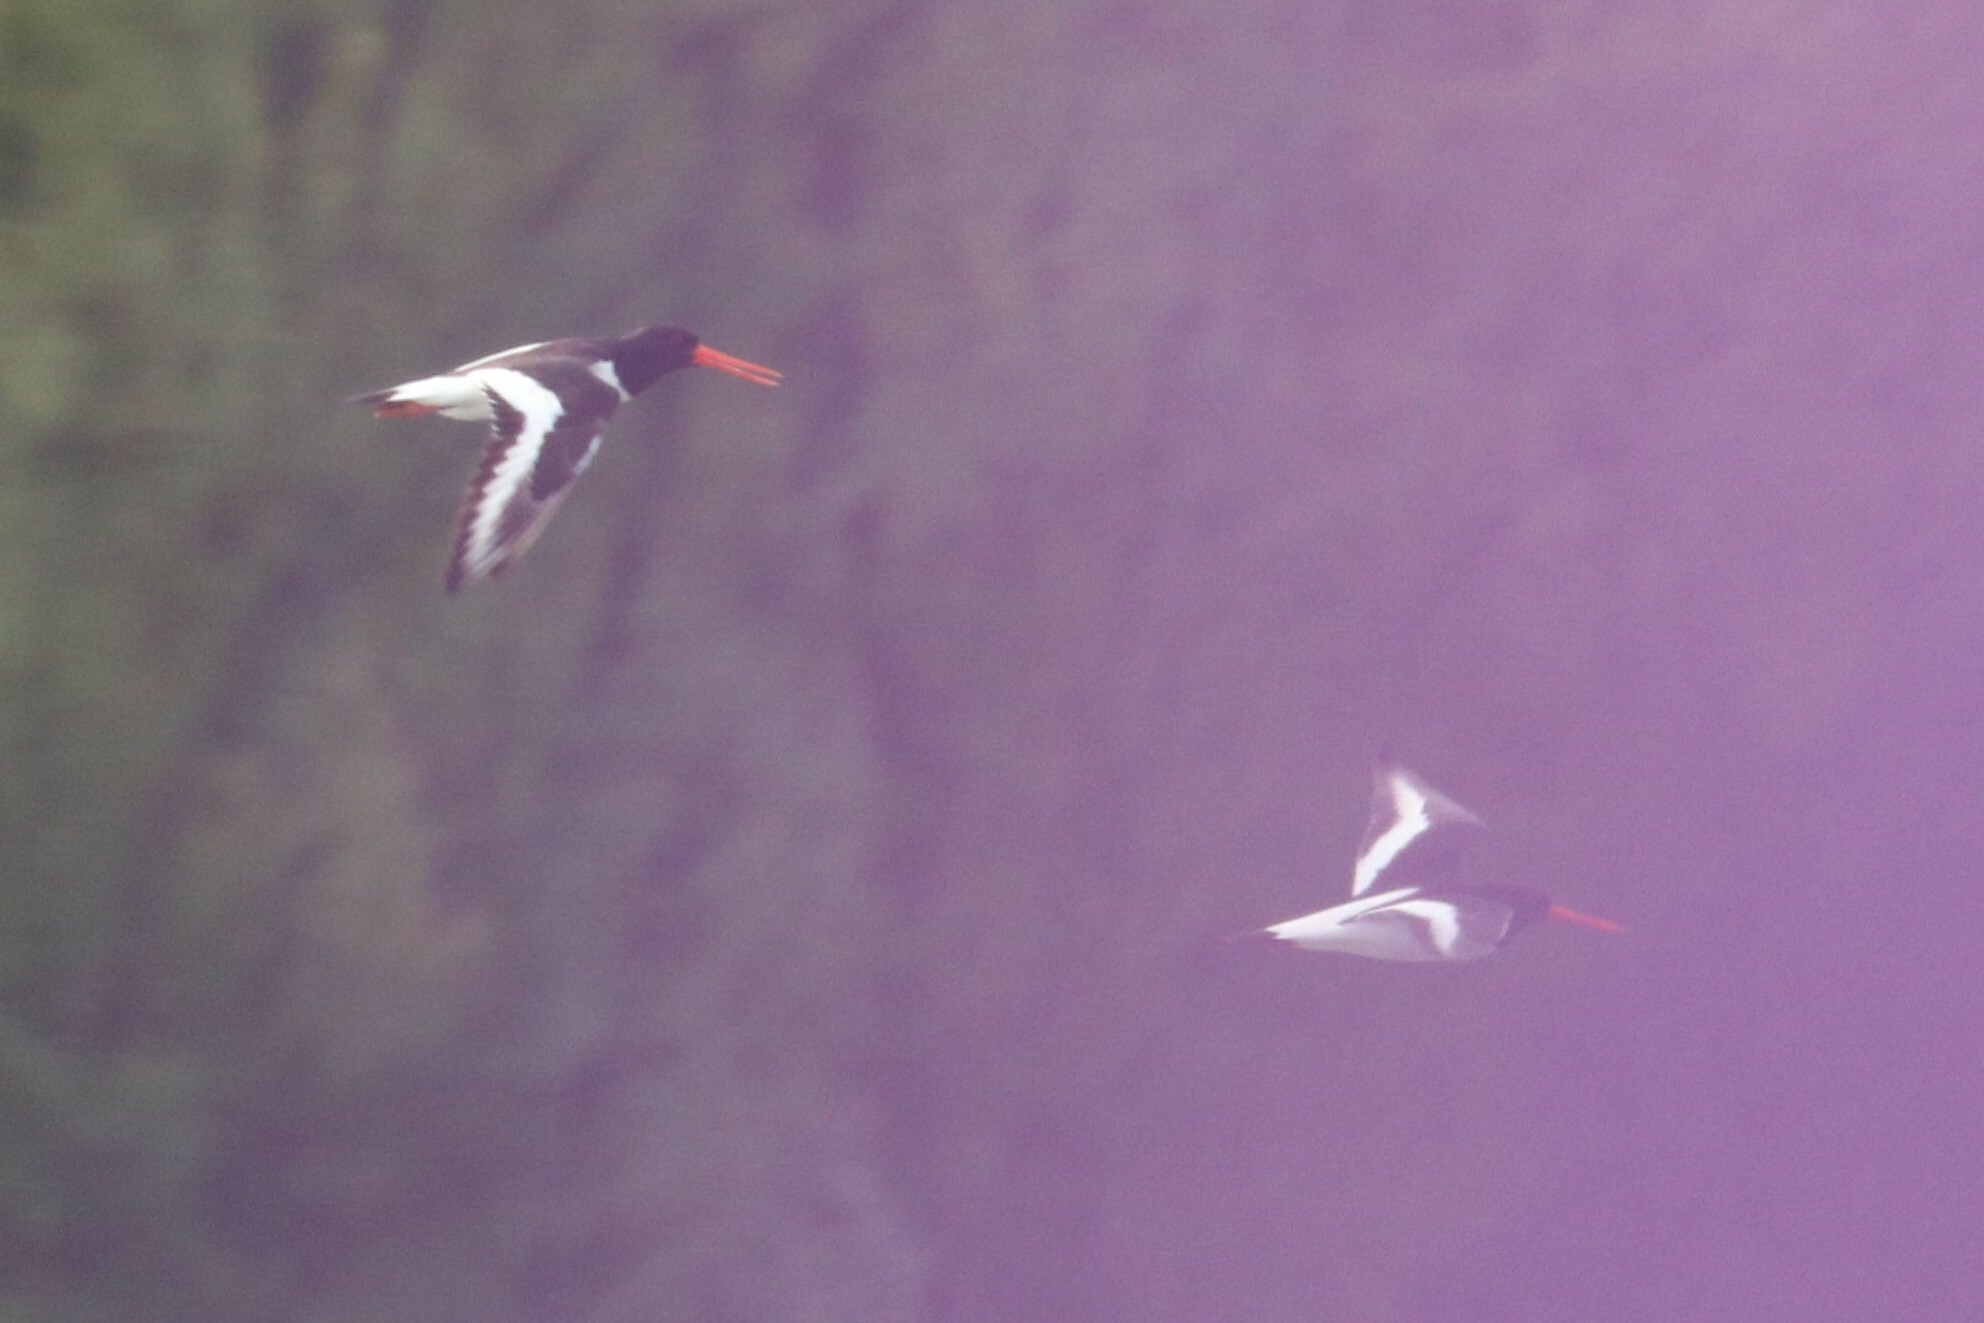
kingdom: Animalia
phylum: Chordata
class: Aves
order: Charadriiformes
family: Haematopodidae
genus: Haematopus
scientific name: Haematopus ostralegus
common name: Eurasian oystercatcher
